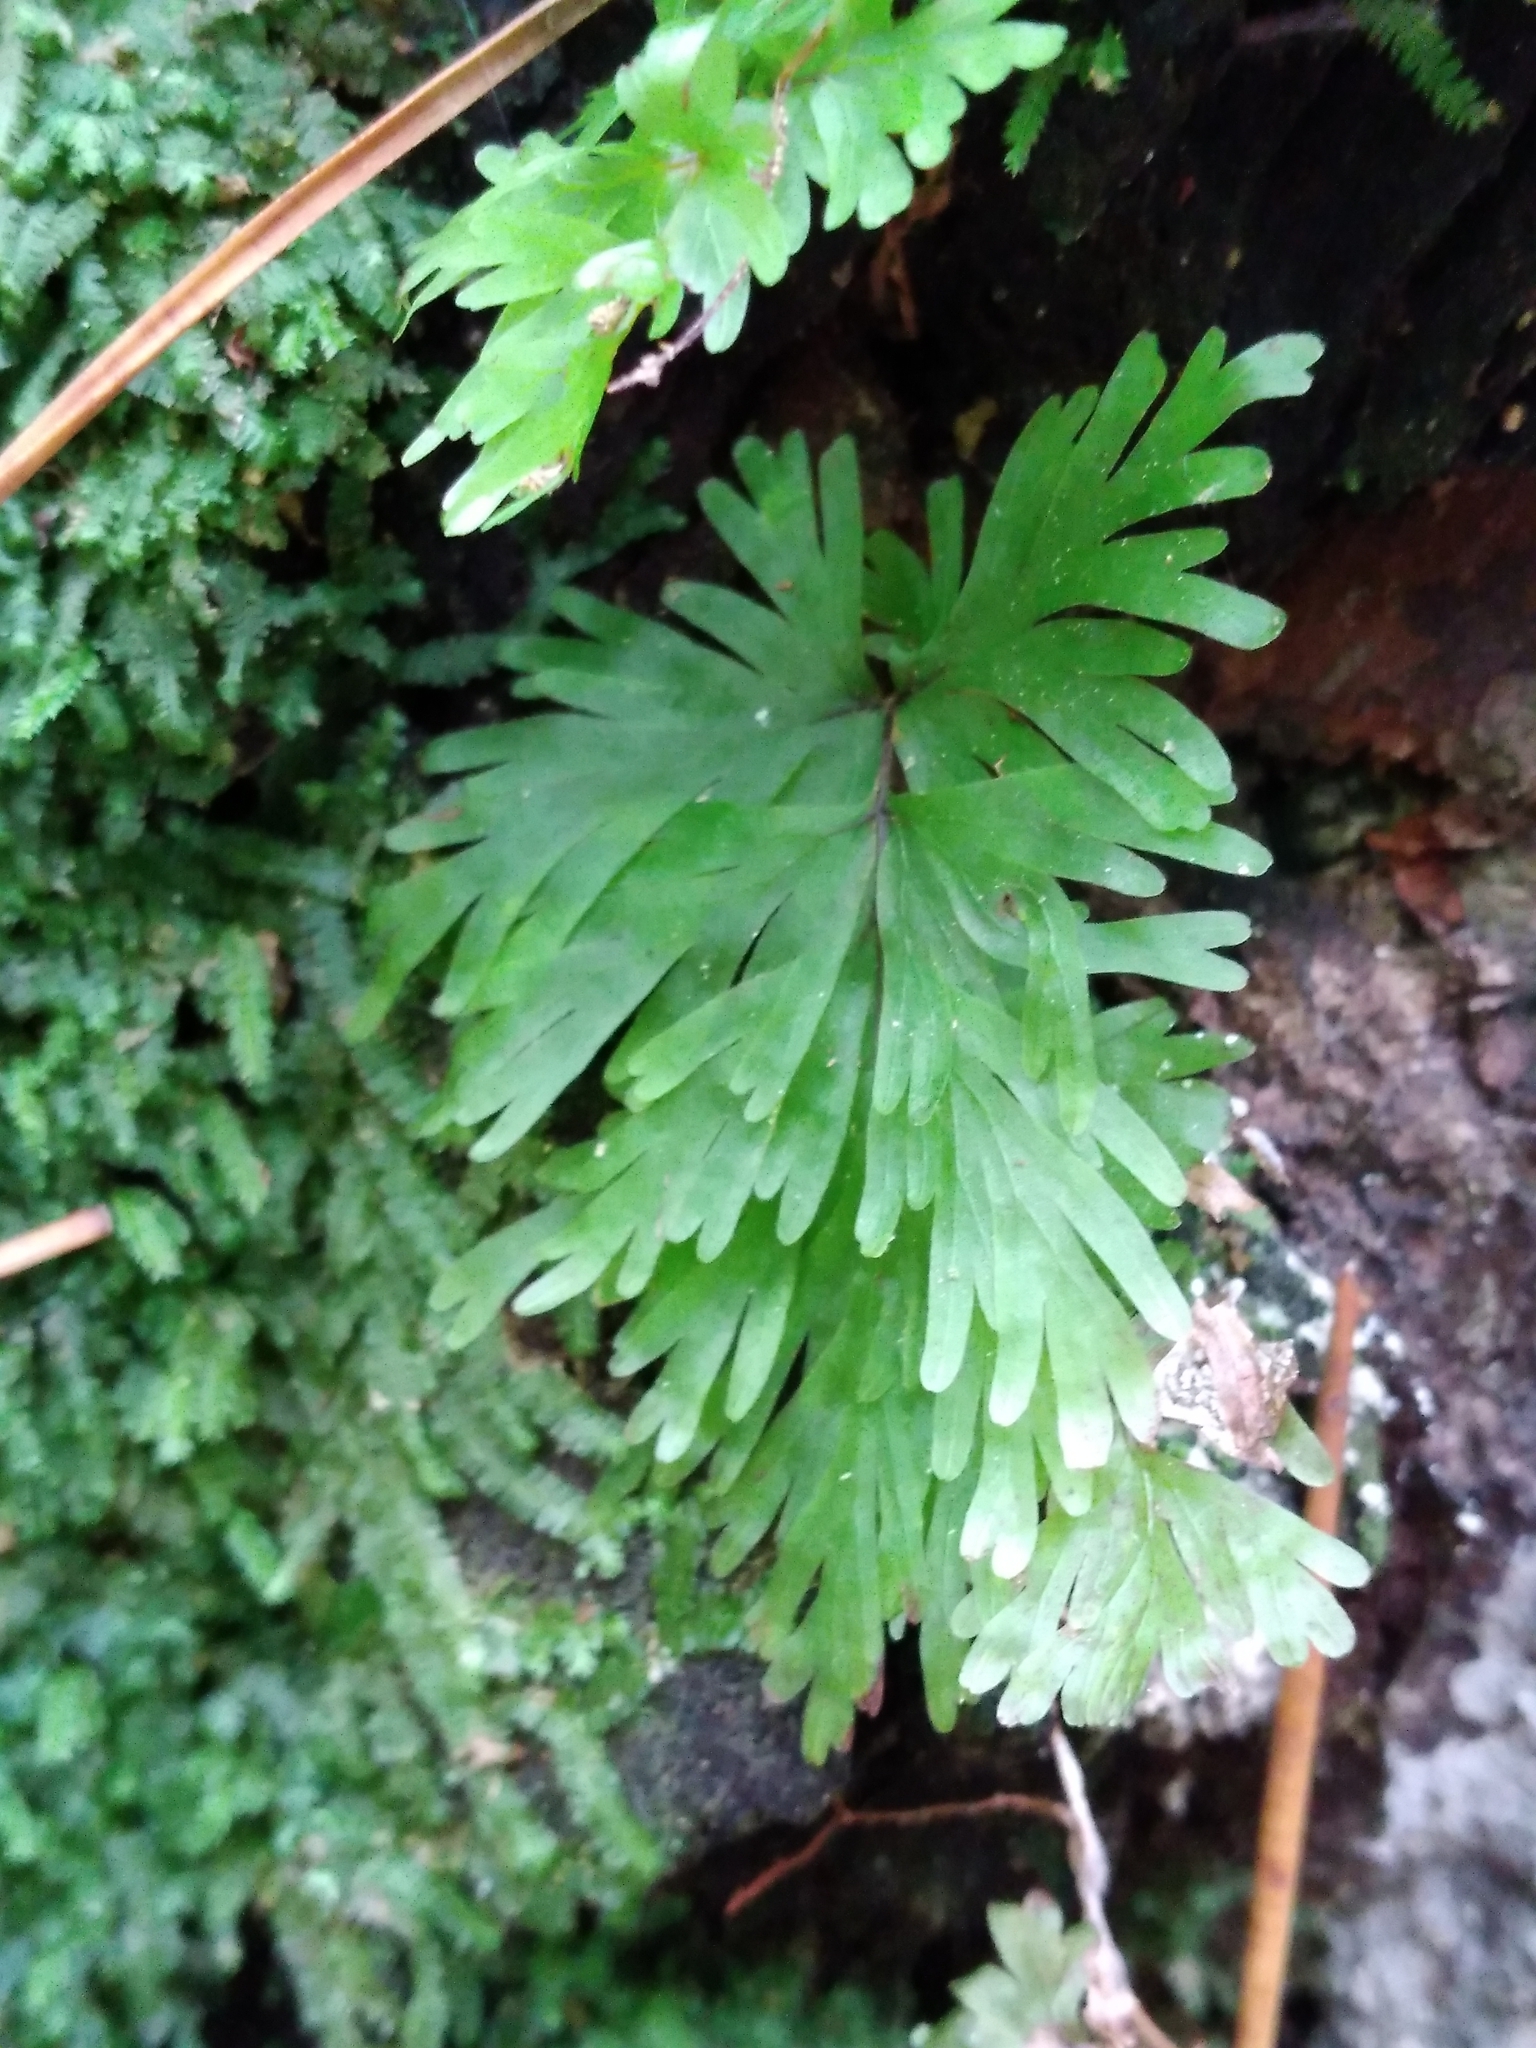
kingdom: Plantae
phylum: Tracheophyta
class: Polypodiopsida
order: Hymenophyllales
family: Hymenophyllaceae
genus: Hymenophyllum
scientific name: Hymenophyllum flabellatum
